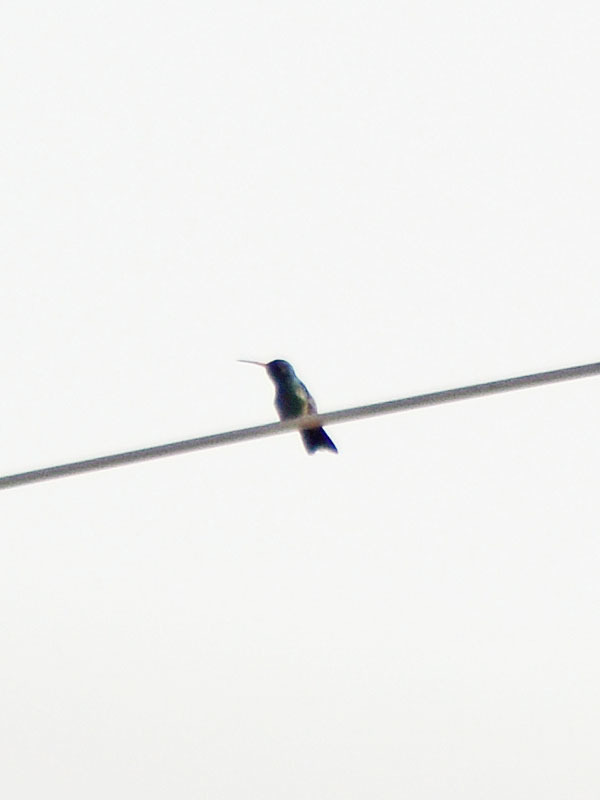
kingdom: Animalia
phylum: Chordata
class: Aves
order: Apodiformes
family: Trochilidae
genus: Cynanthus
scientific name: Cynanthus latirostris
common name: Broad-billed hummingbird
